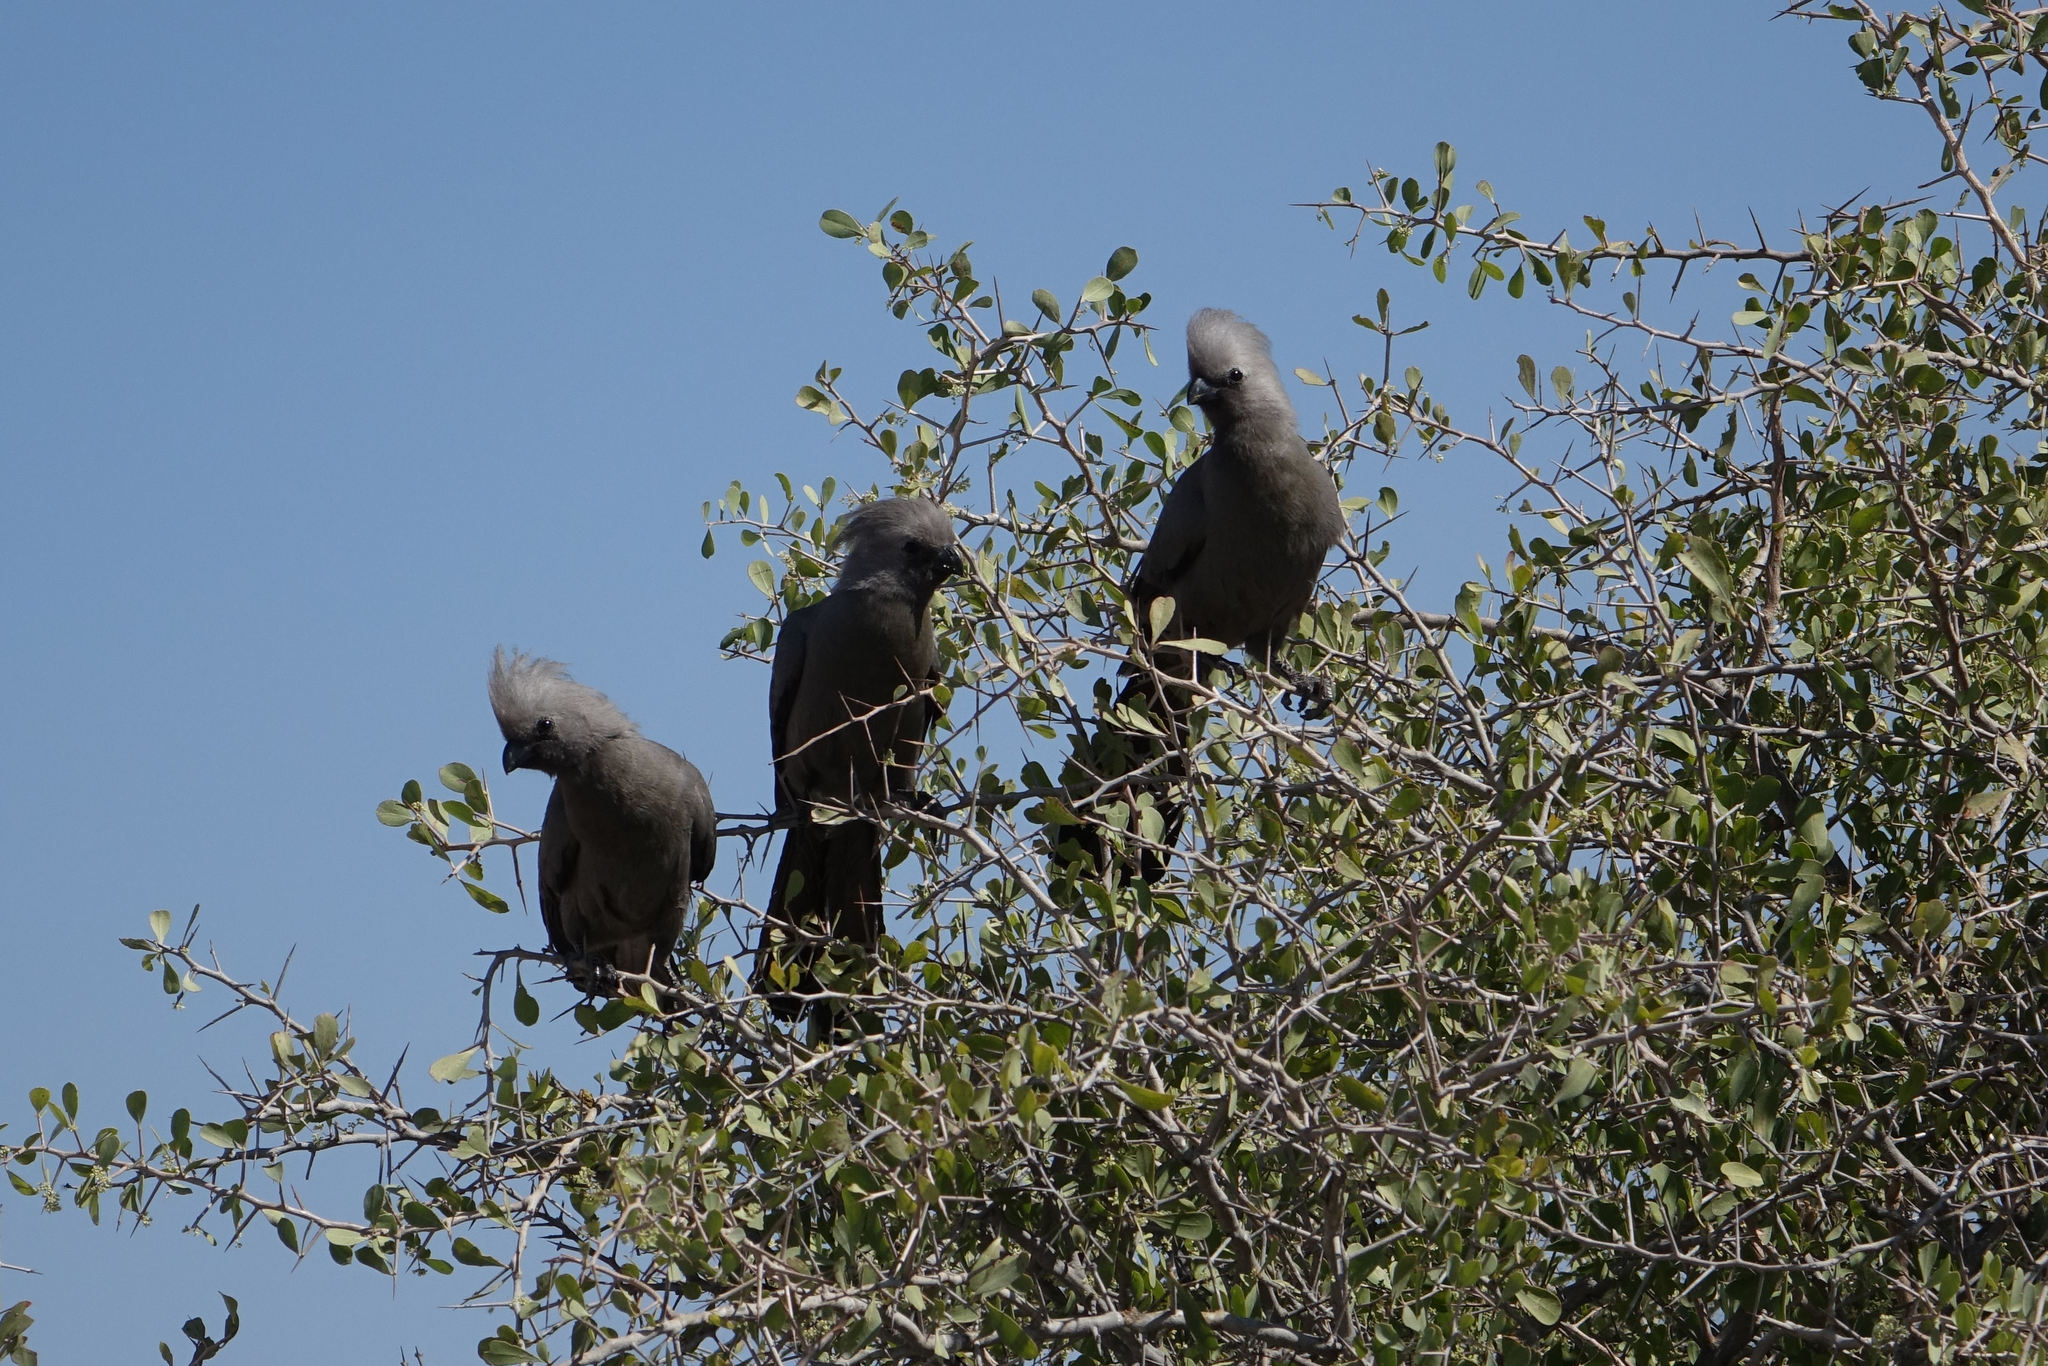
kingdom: Animalia
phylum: Chordata
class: Aves
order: Musophagiformes
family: Musophagidae
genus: Corythaixoides
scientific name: Corythaixoides concolor
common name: Grey go-away-bird
